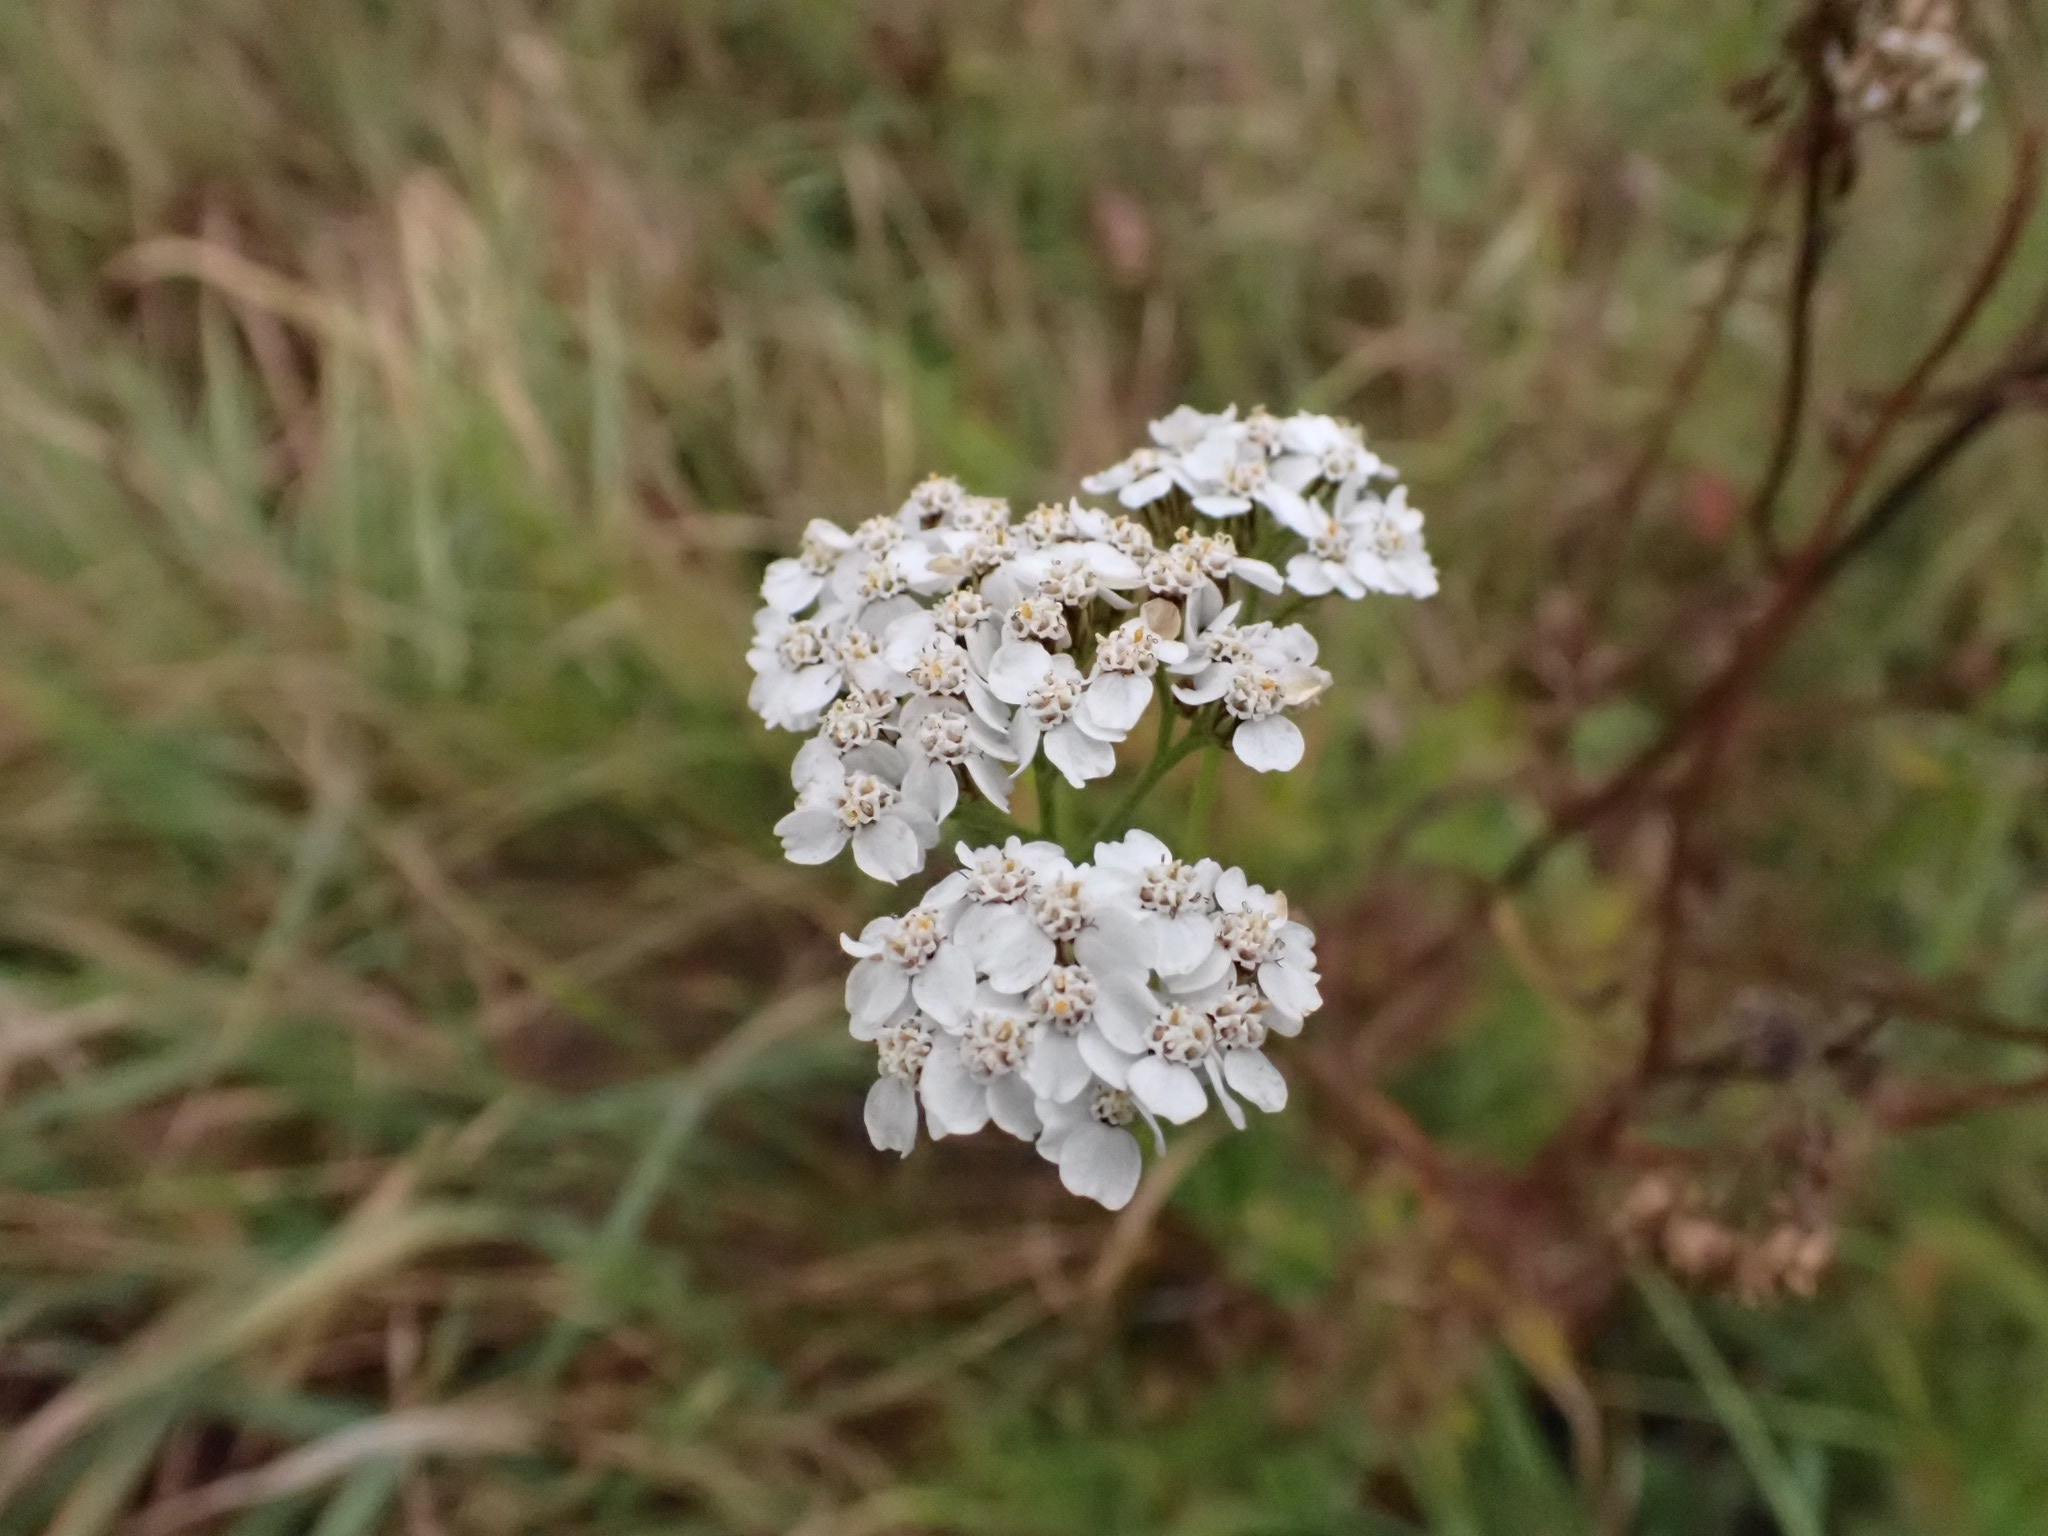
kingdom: Plantae
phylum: Tracheophyta
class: Magnoliopsida
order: Asterales
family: Asteraceae
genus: Achillea
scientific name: Achillea asiatica
